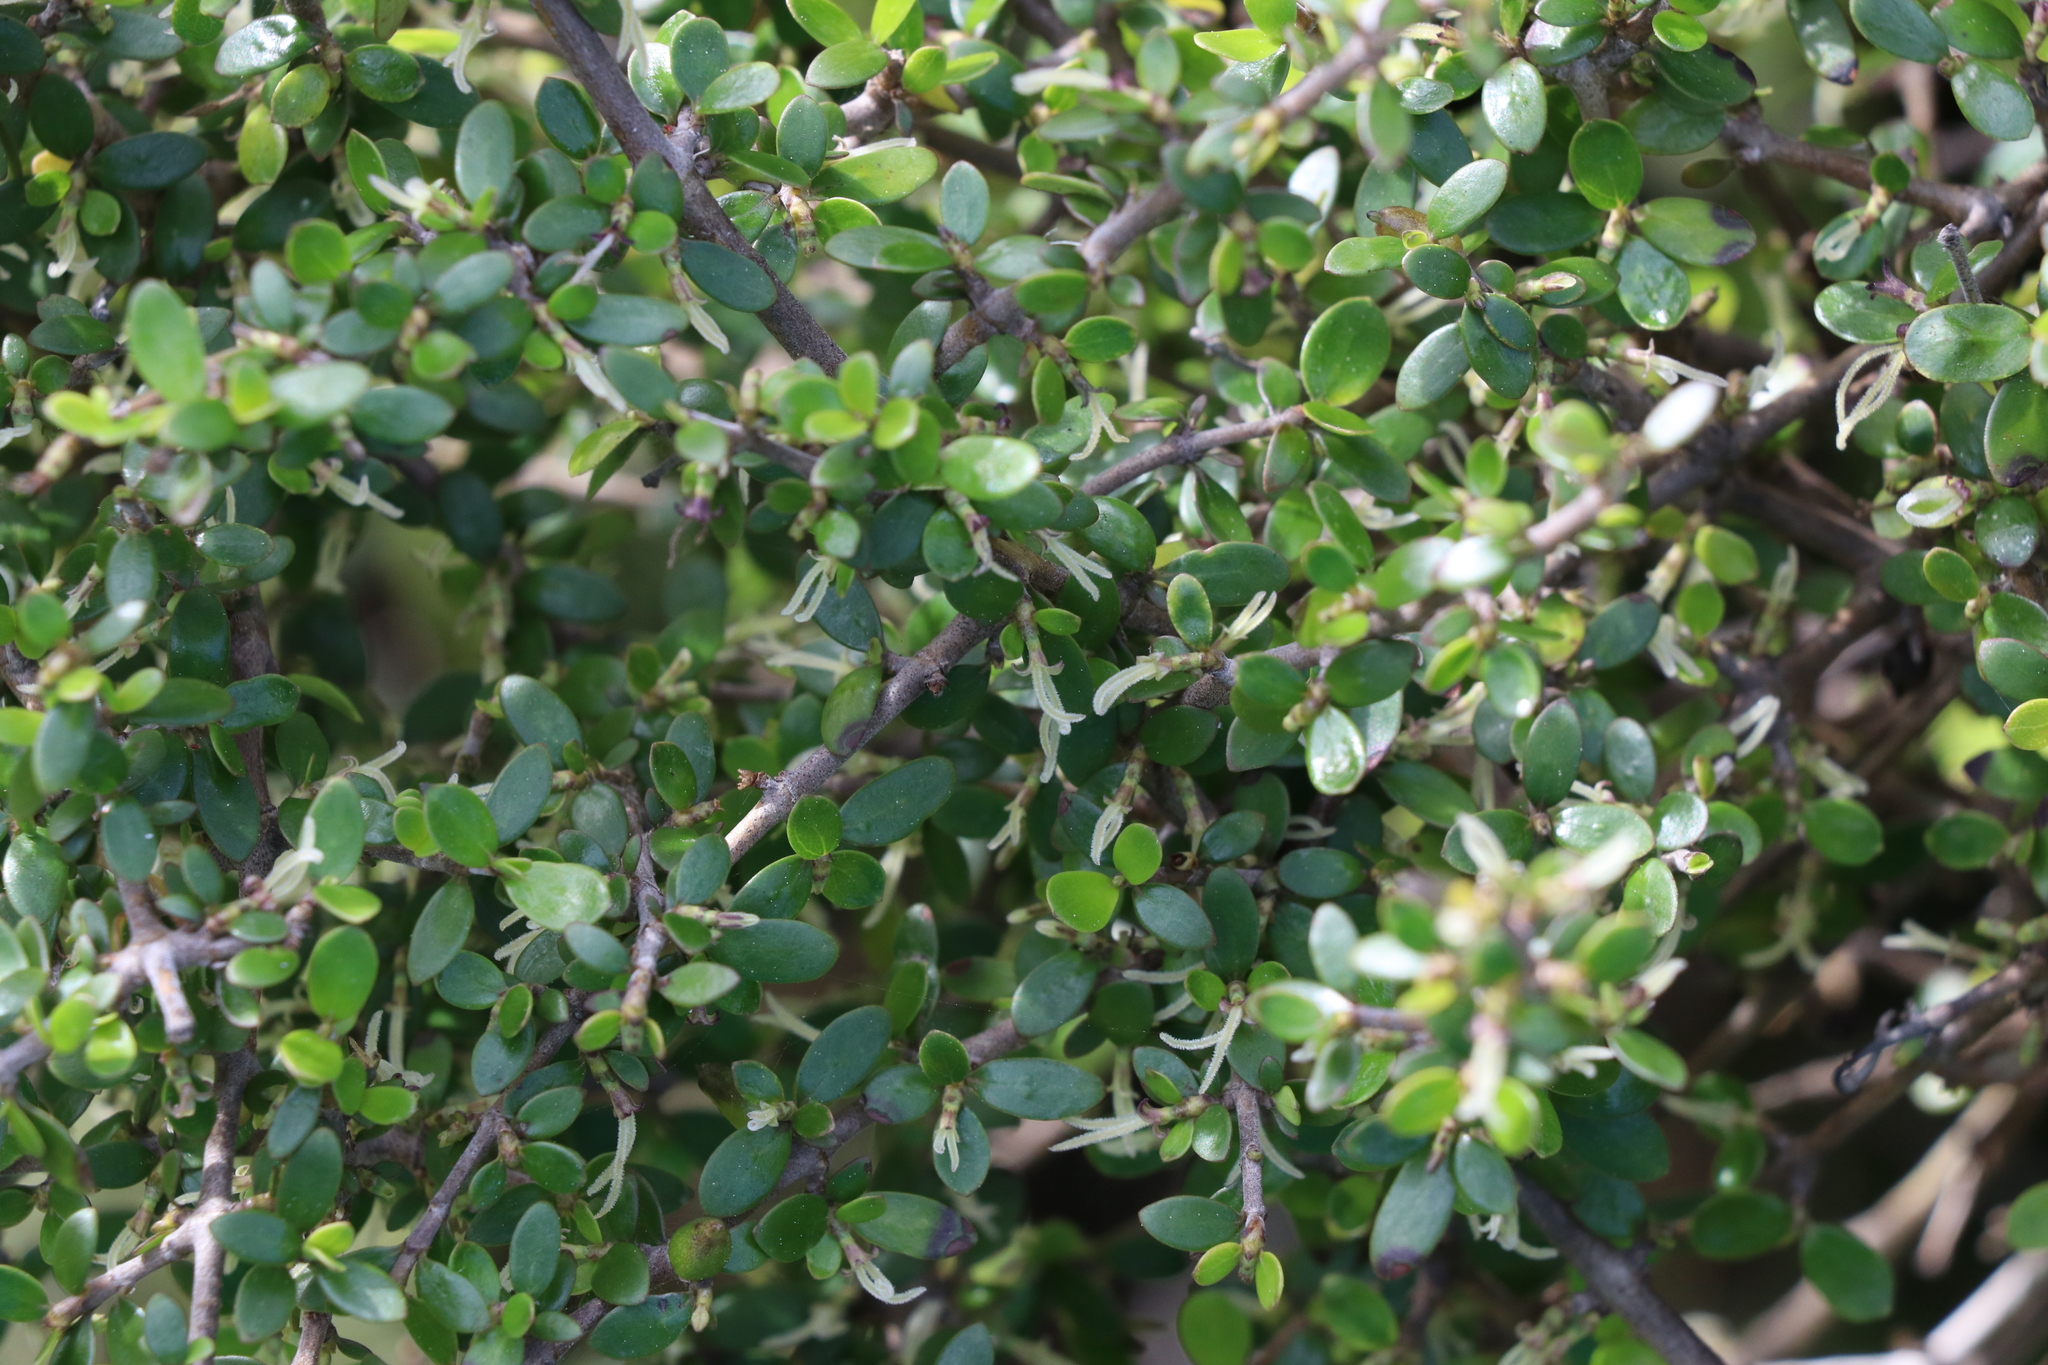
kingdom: Plantae
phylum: Tracheophyta
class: Magnoliopsida
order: Gentianales
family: Rubiaceae
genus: Coprosma
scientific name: Coprosma propinqua
